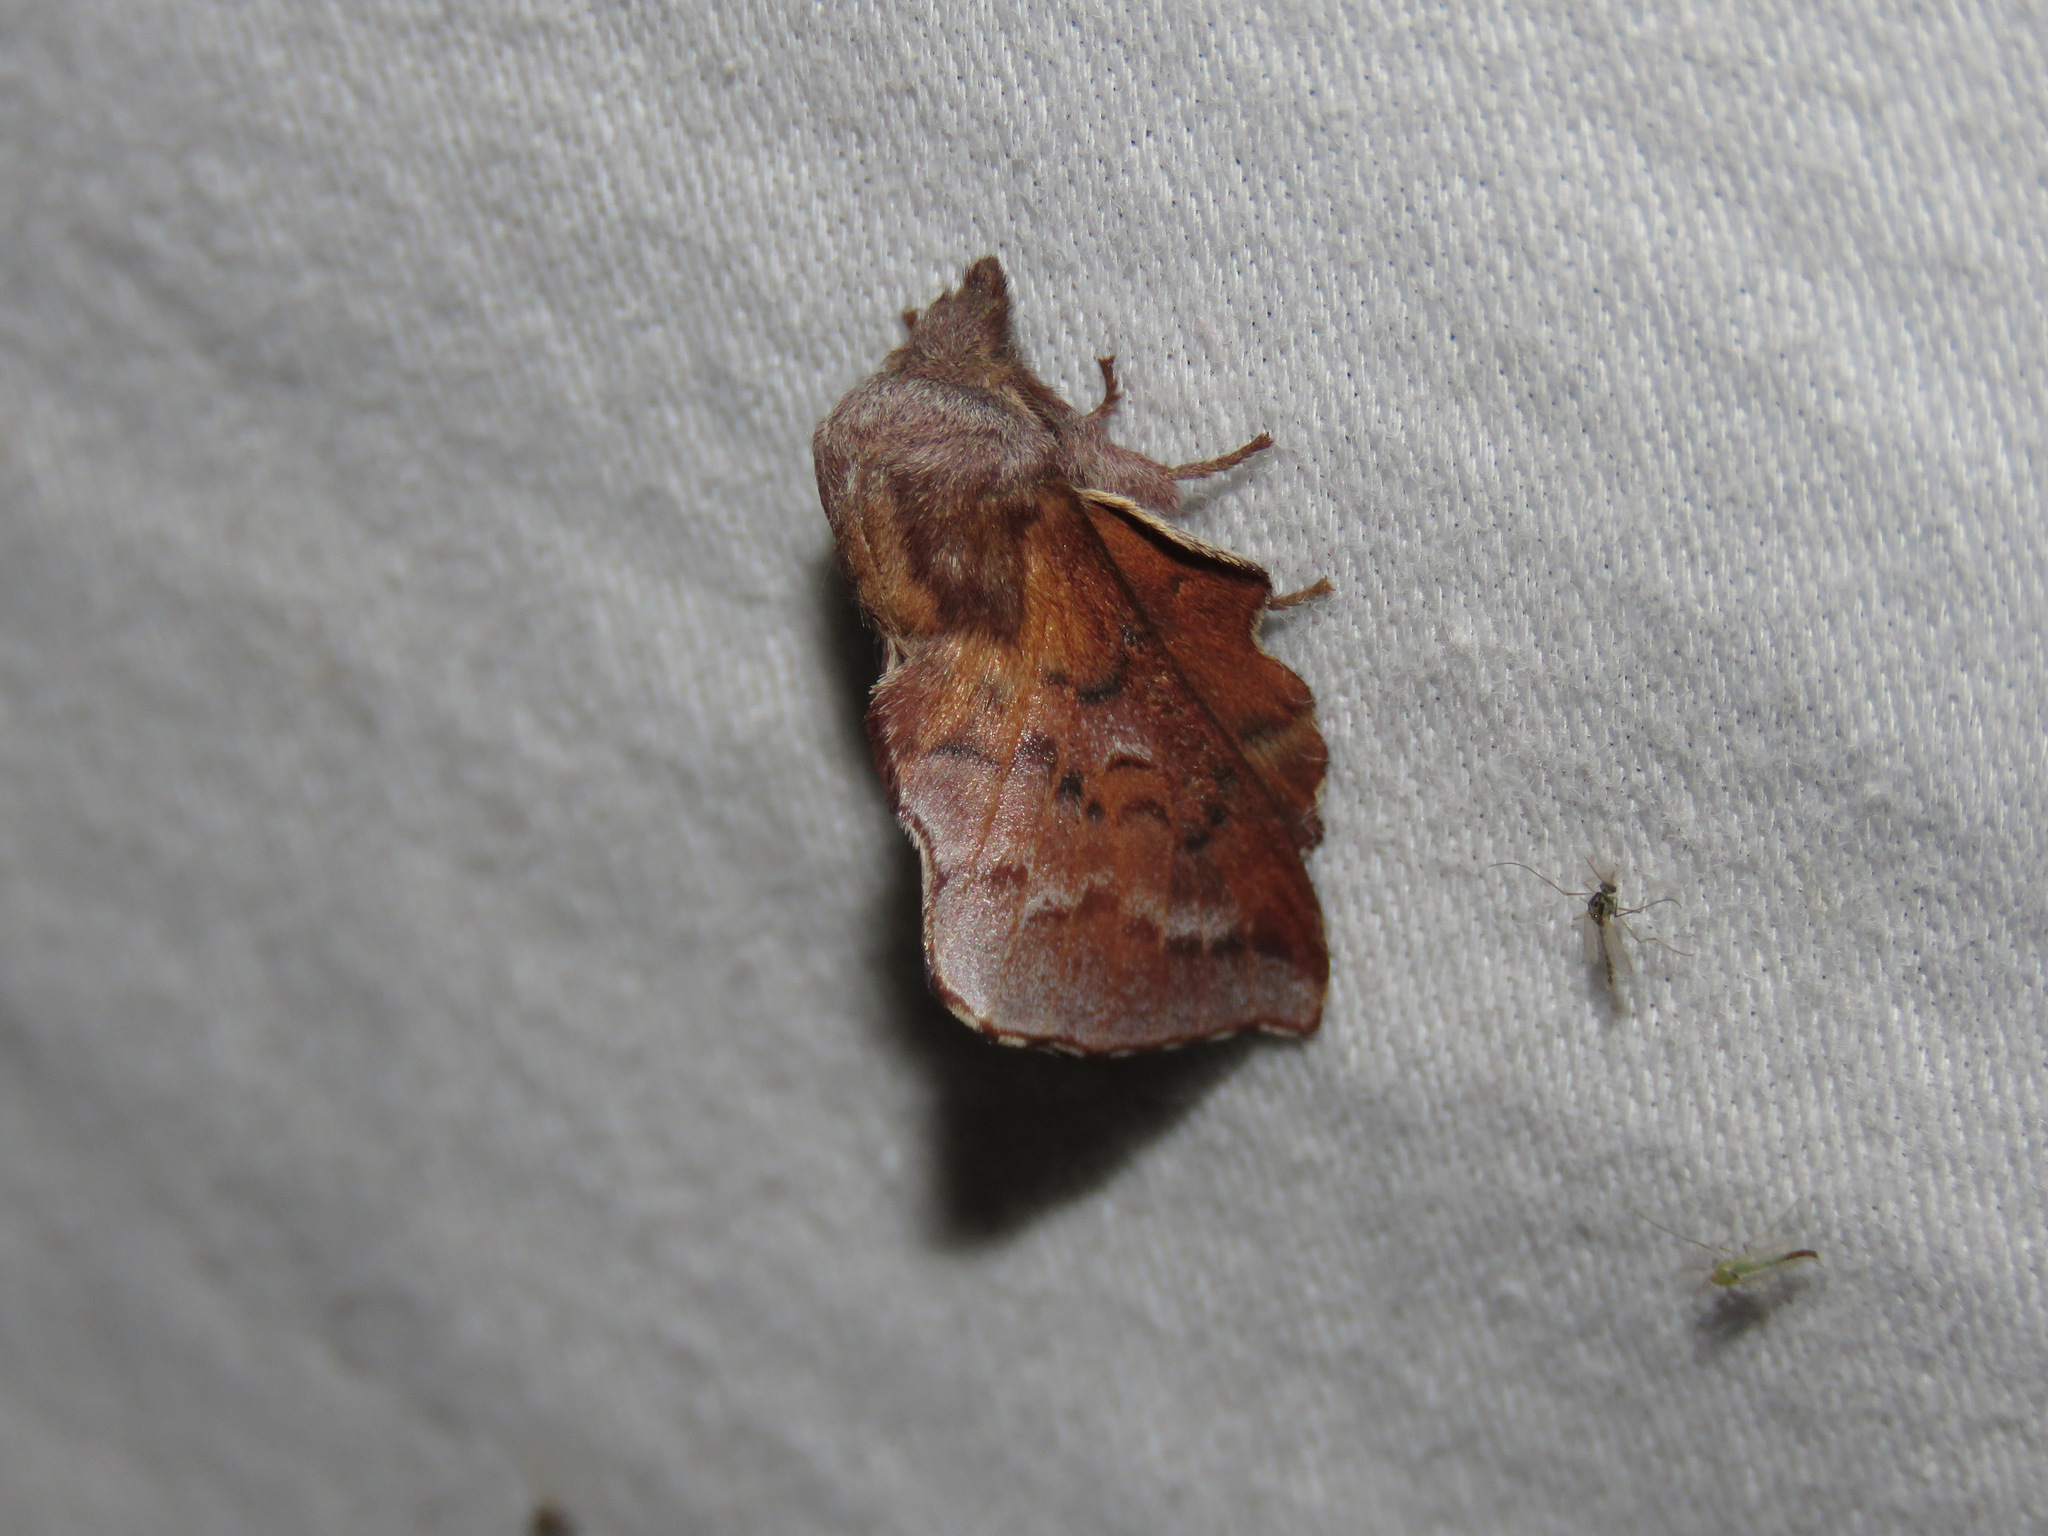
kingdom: Animalia
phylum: Arthropoda
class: Insecta
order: Lepidoptera
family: Lasiocampidae
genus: Phyllodesma
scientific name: Phyllodesma americana
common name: American lappet moth
